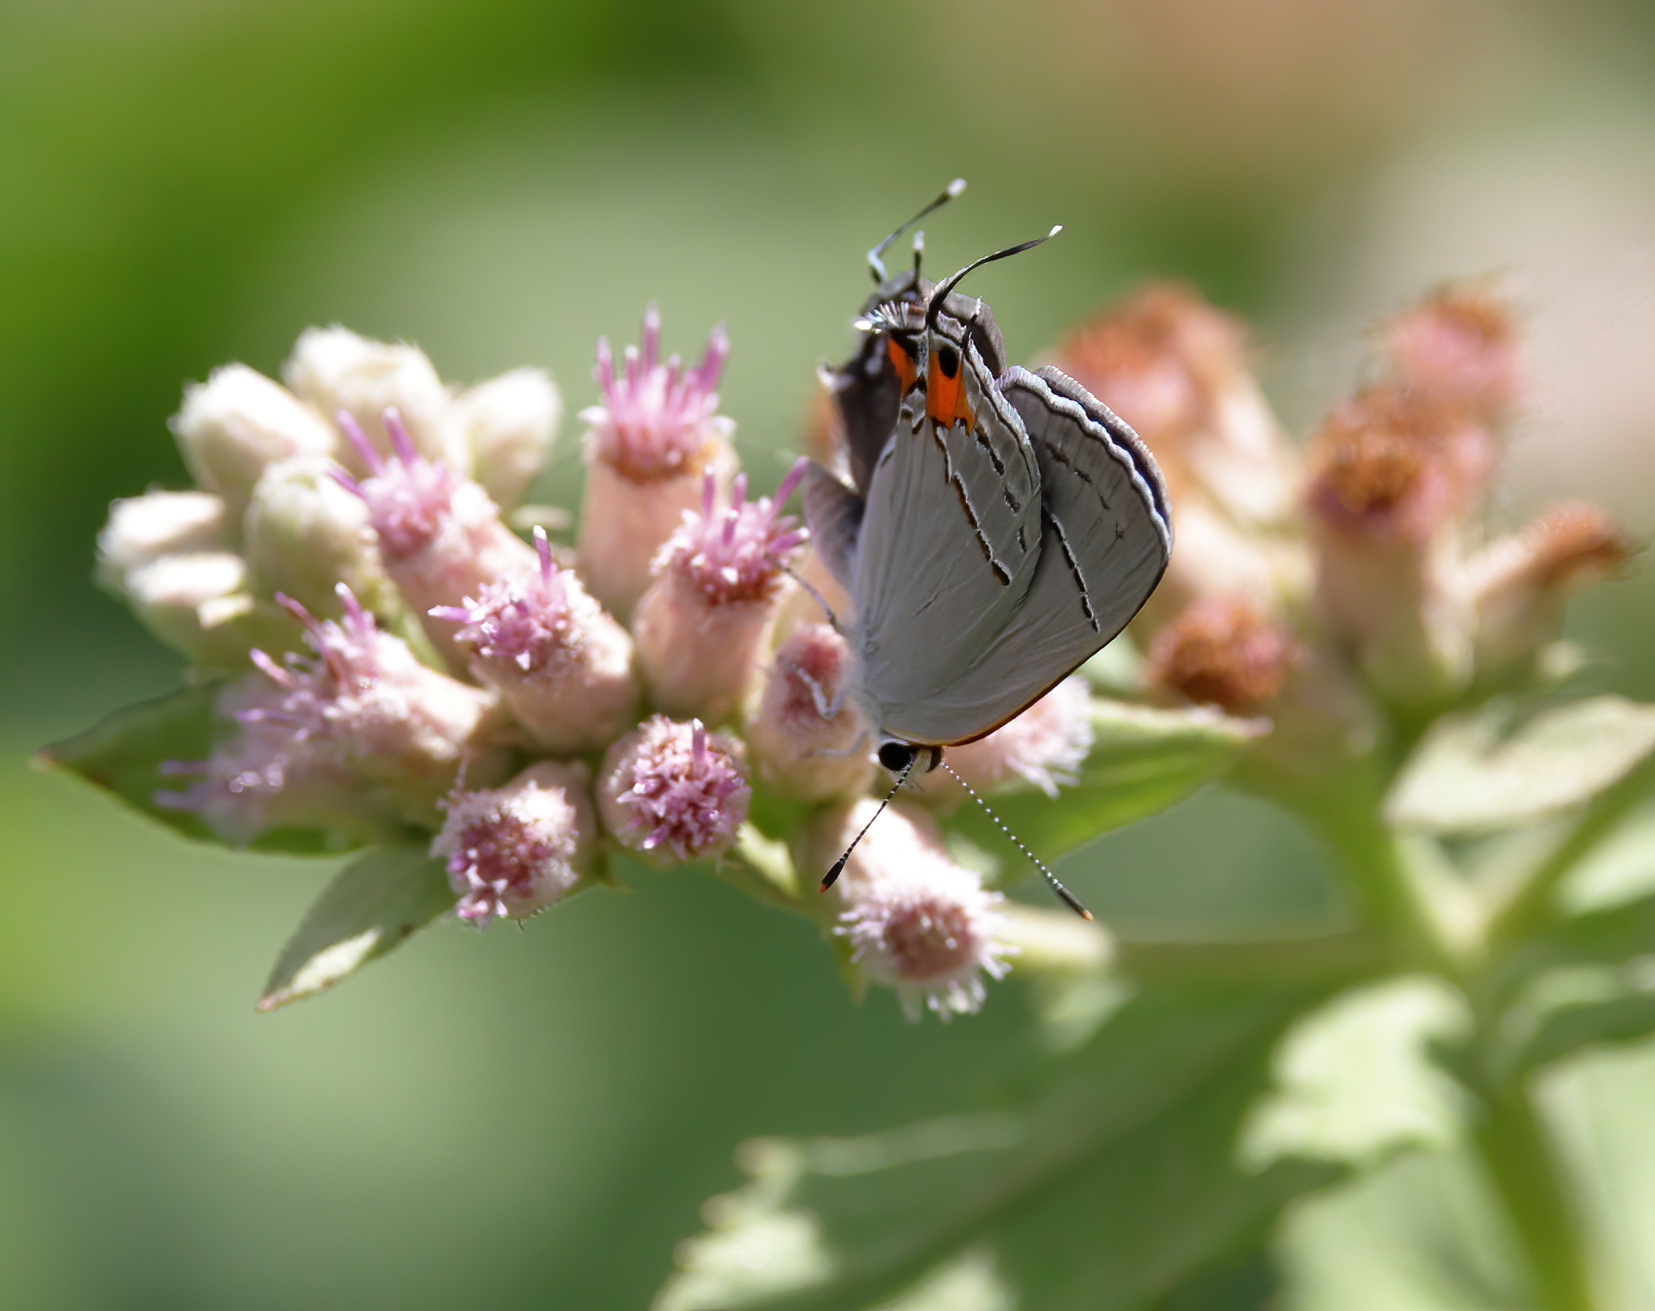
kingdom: Animalia
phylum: Arthropoda
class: Insecta
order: Lepidoptera
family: Lycaenidae
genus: Strymon
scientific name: Strymon melinus
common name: Gray hairstreak
